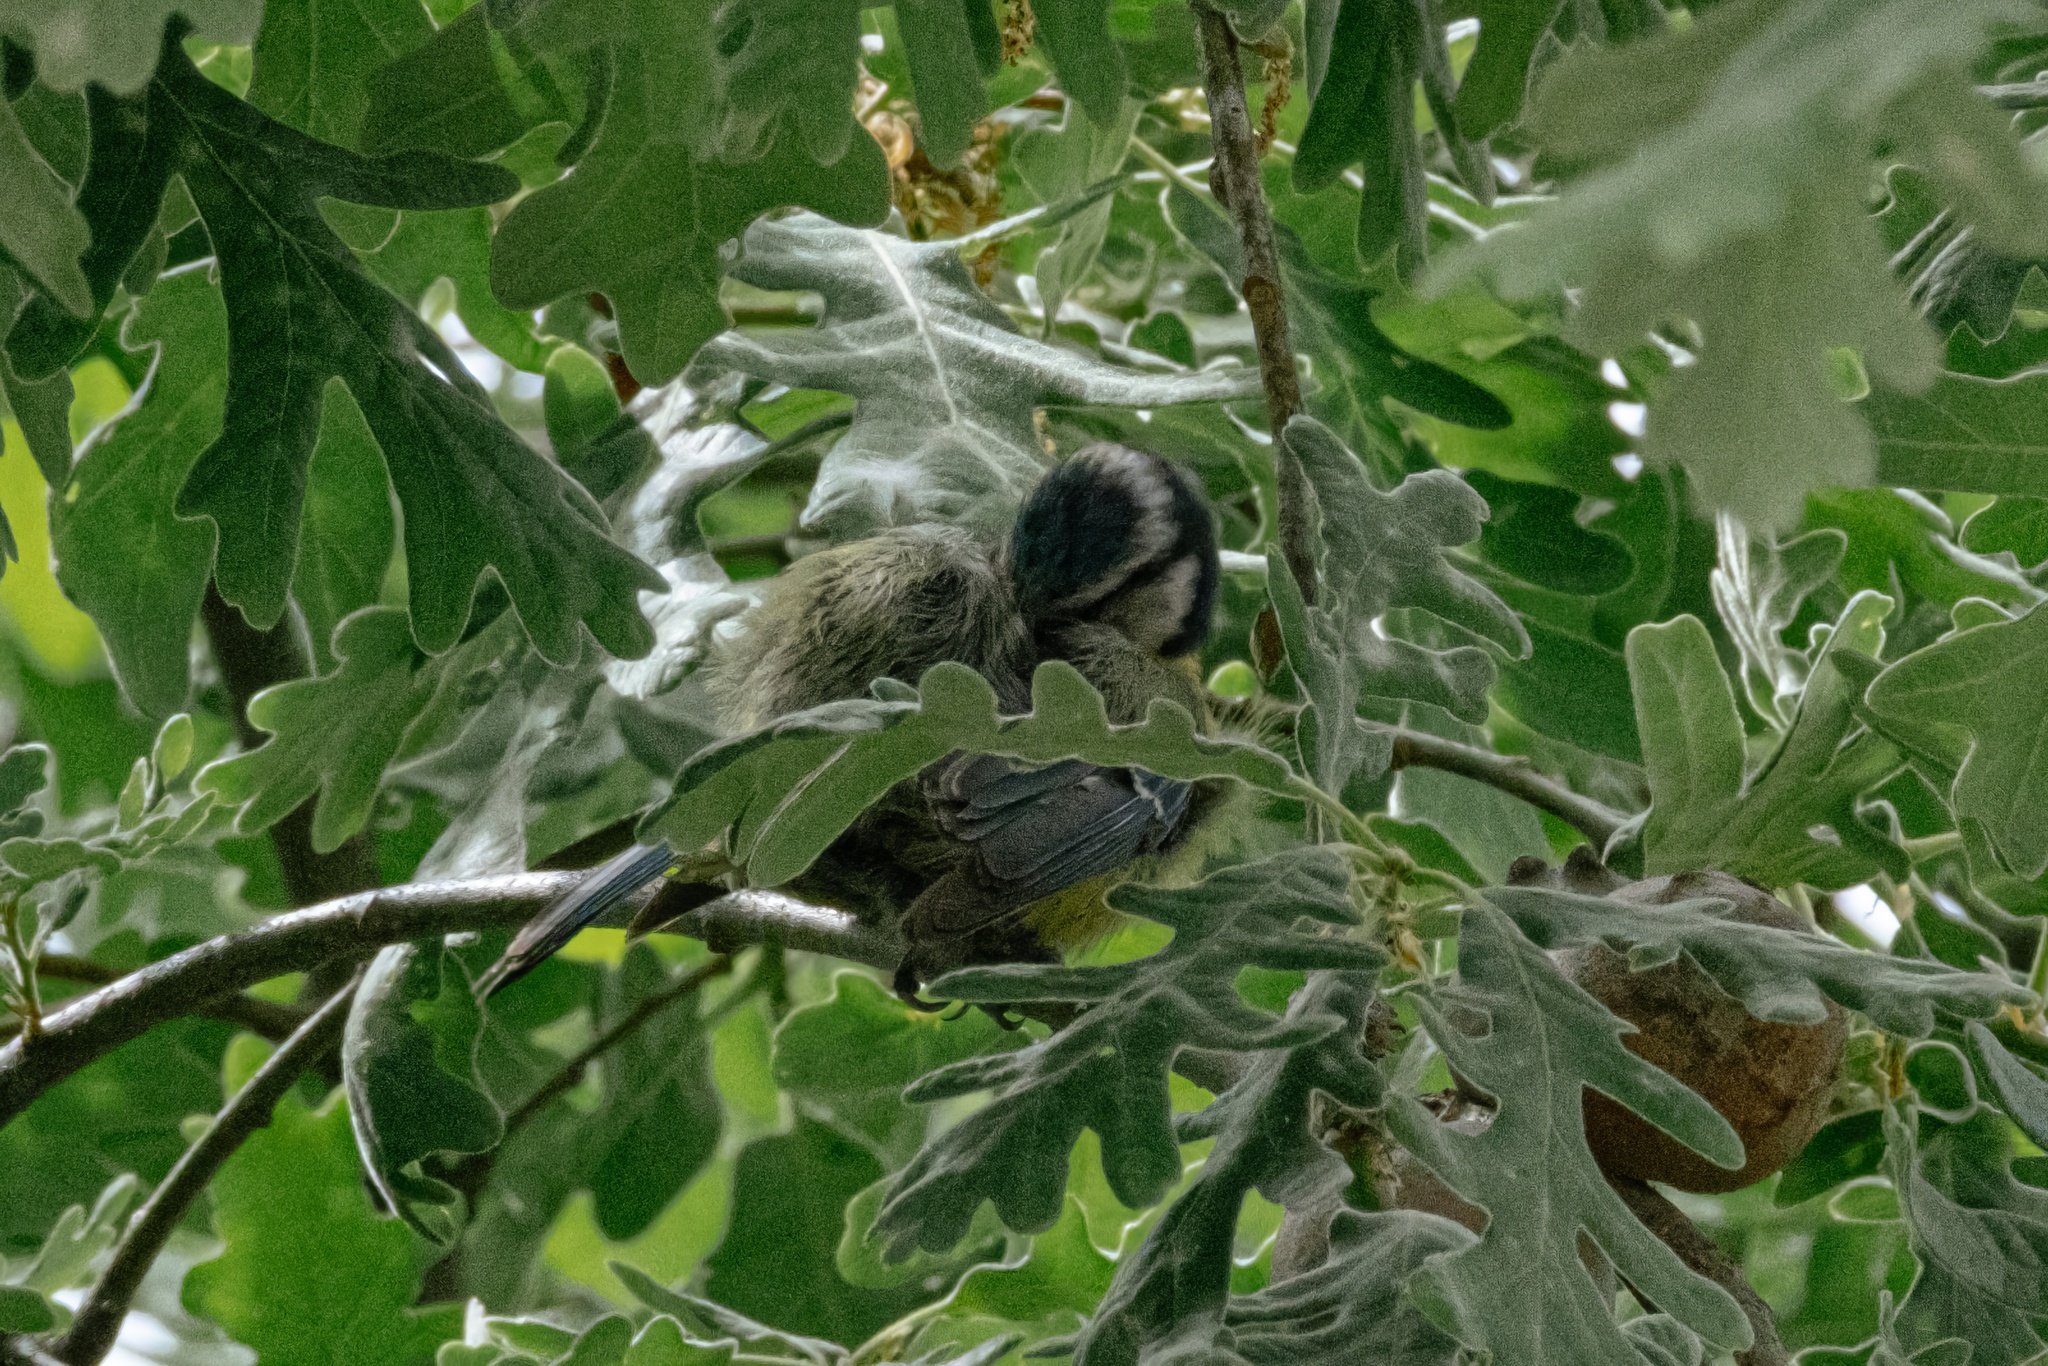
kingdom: Animalia
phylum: Chordata
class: Aves
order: Passeriformes
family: Paridae
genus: Cyanistes
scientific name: Cyanistes caeruleus
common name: Eurasian blue tit
